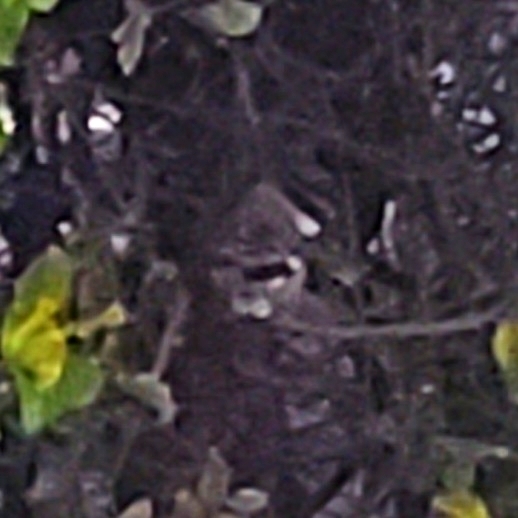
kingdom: Animalia
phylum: Chordata
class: Aves
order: Passeriformes
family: Mimidae
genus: Mimus
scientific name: Mimus polyglottos
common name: Northern mockingbird
